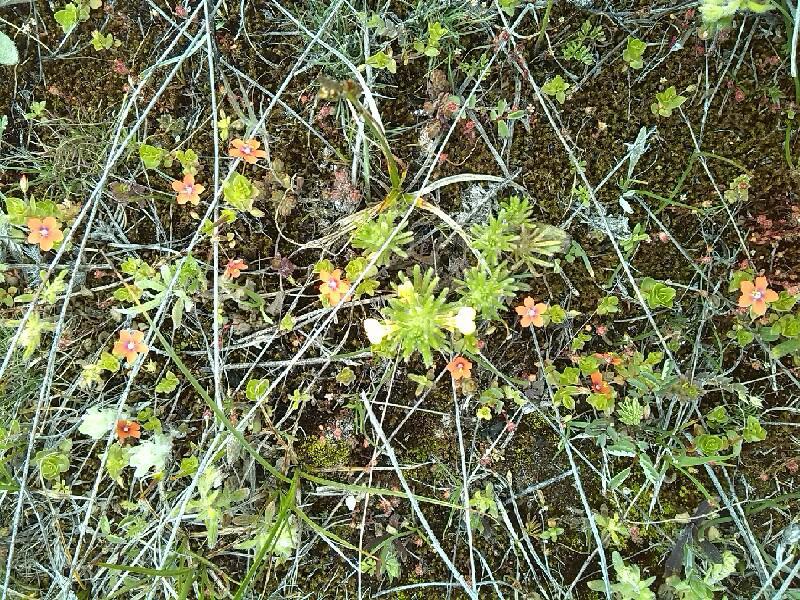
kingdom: Plantae
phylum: Tracheophyta
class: Magnoliopsida
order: Ericales
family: Primulaceae
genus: Lysimachia
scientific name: Lysimachia arvensis
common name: Scarlet pimpernel
